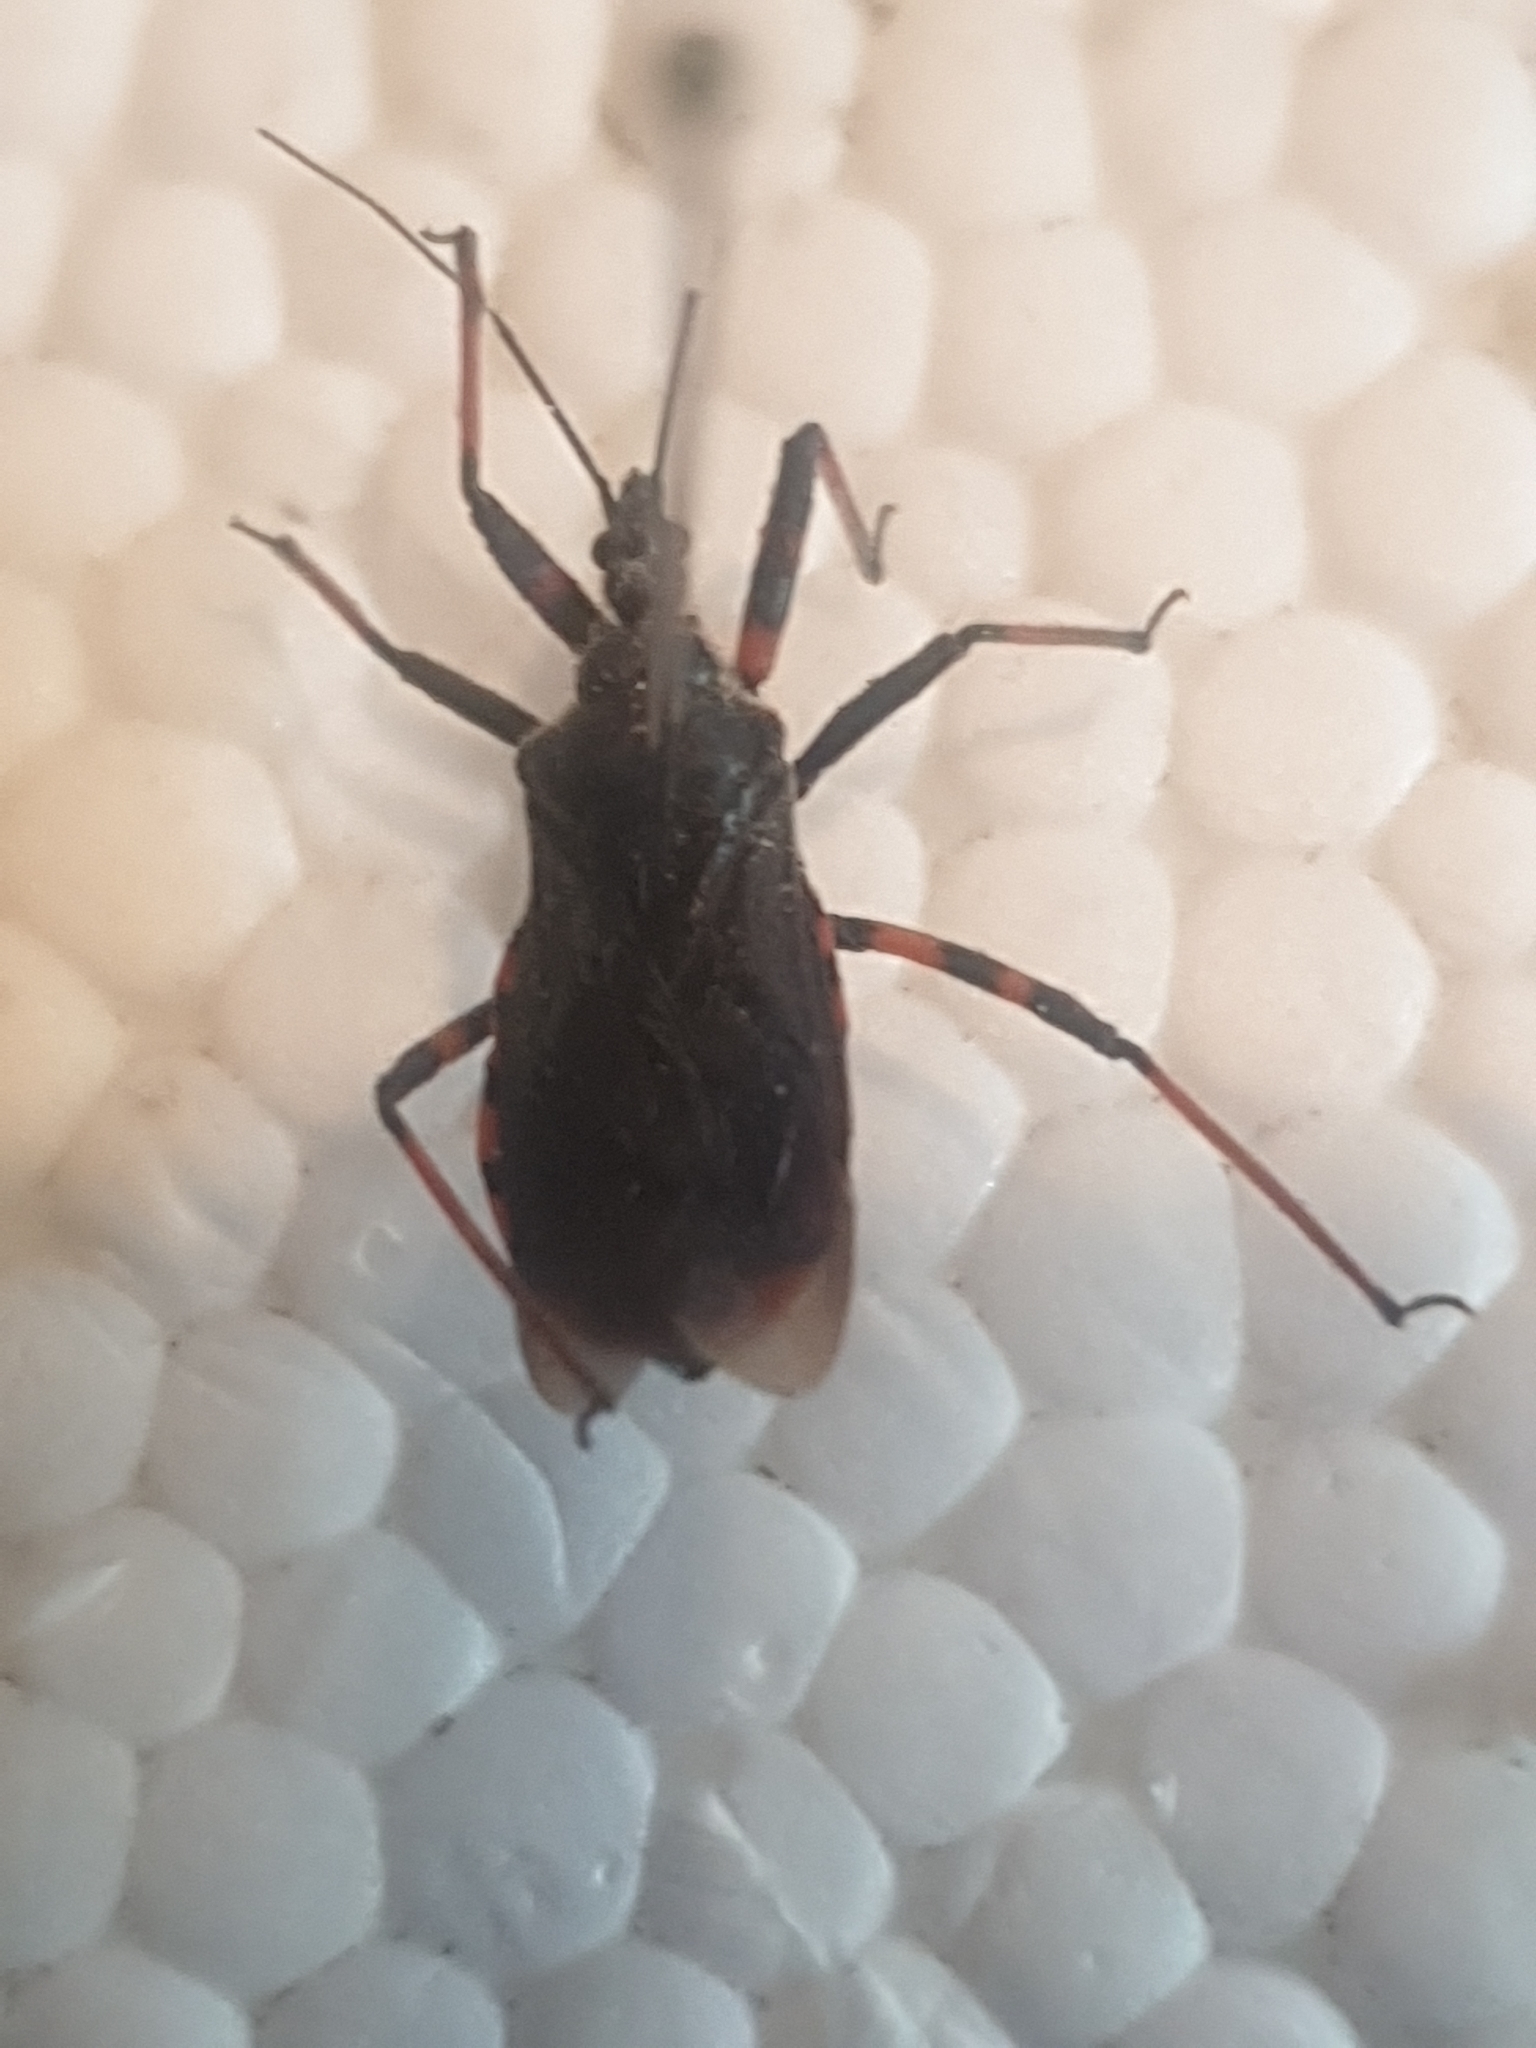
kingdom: Animalia
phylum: Arthropoda
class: Insecta
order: Hemiptera
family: Reduviidae
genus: Rhynocoris
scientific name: Rhynocoris annulatus
